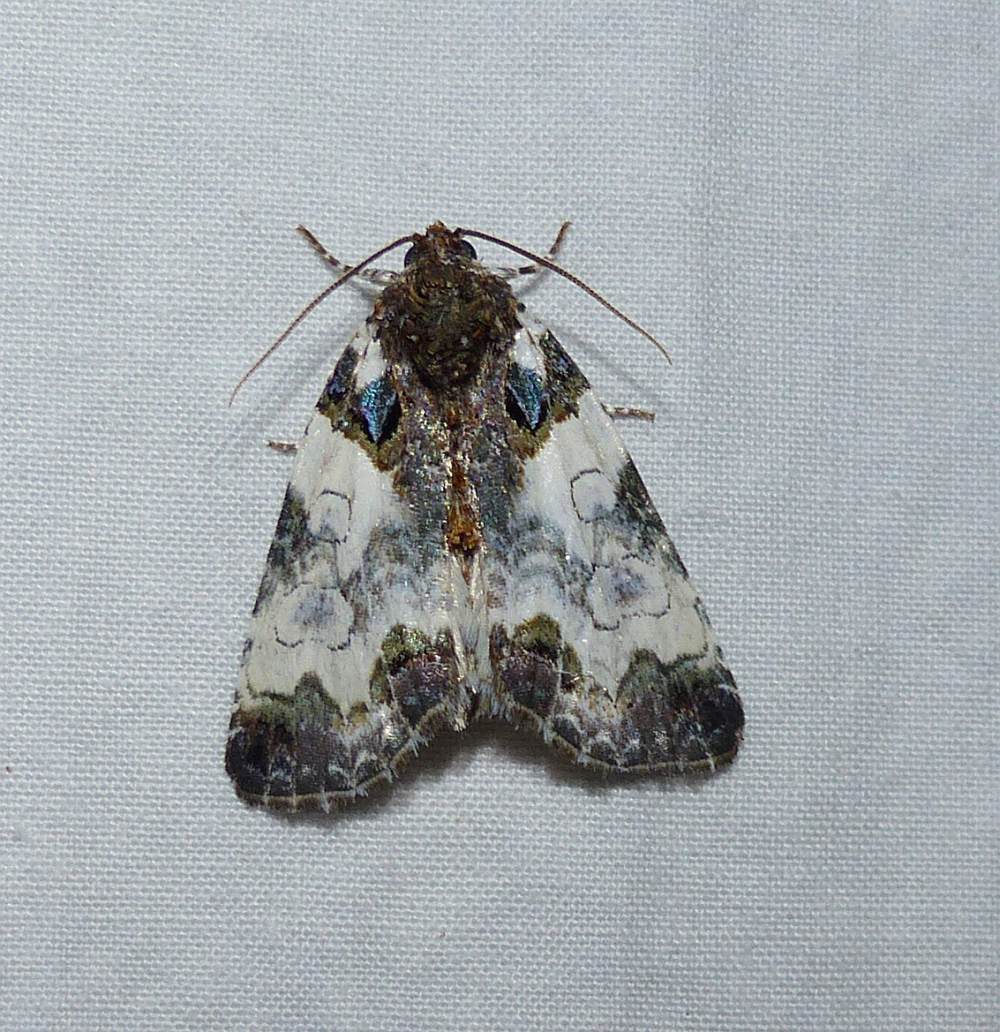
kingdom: Animalia
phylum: Arthropoda
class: Insecta
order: Lepidoptera
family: Noctuidae
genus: Cerma
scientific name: Cerma cerintha
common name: Tufted bird-dropping moth
